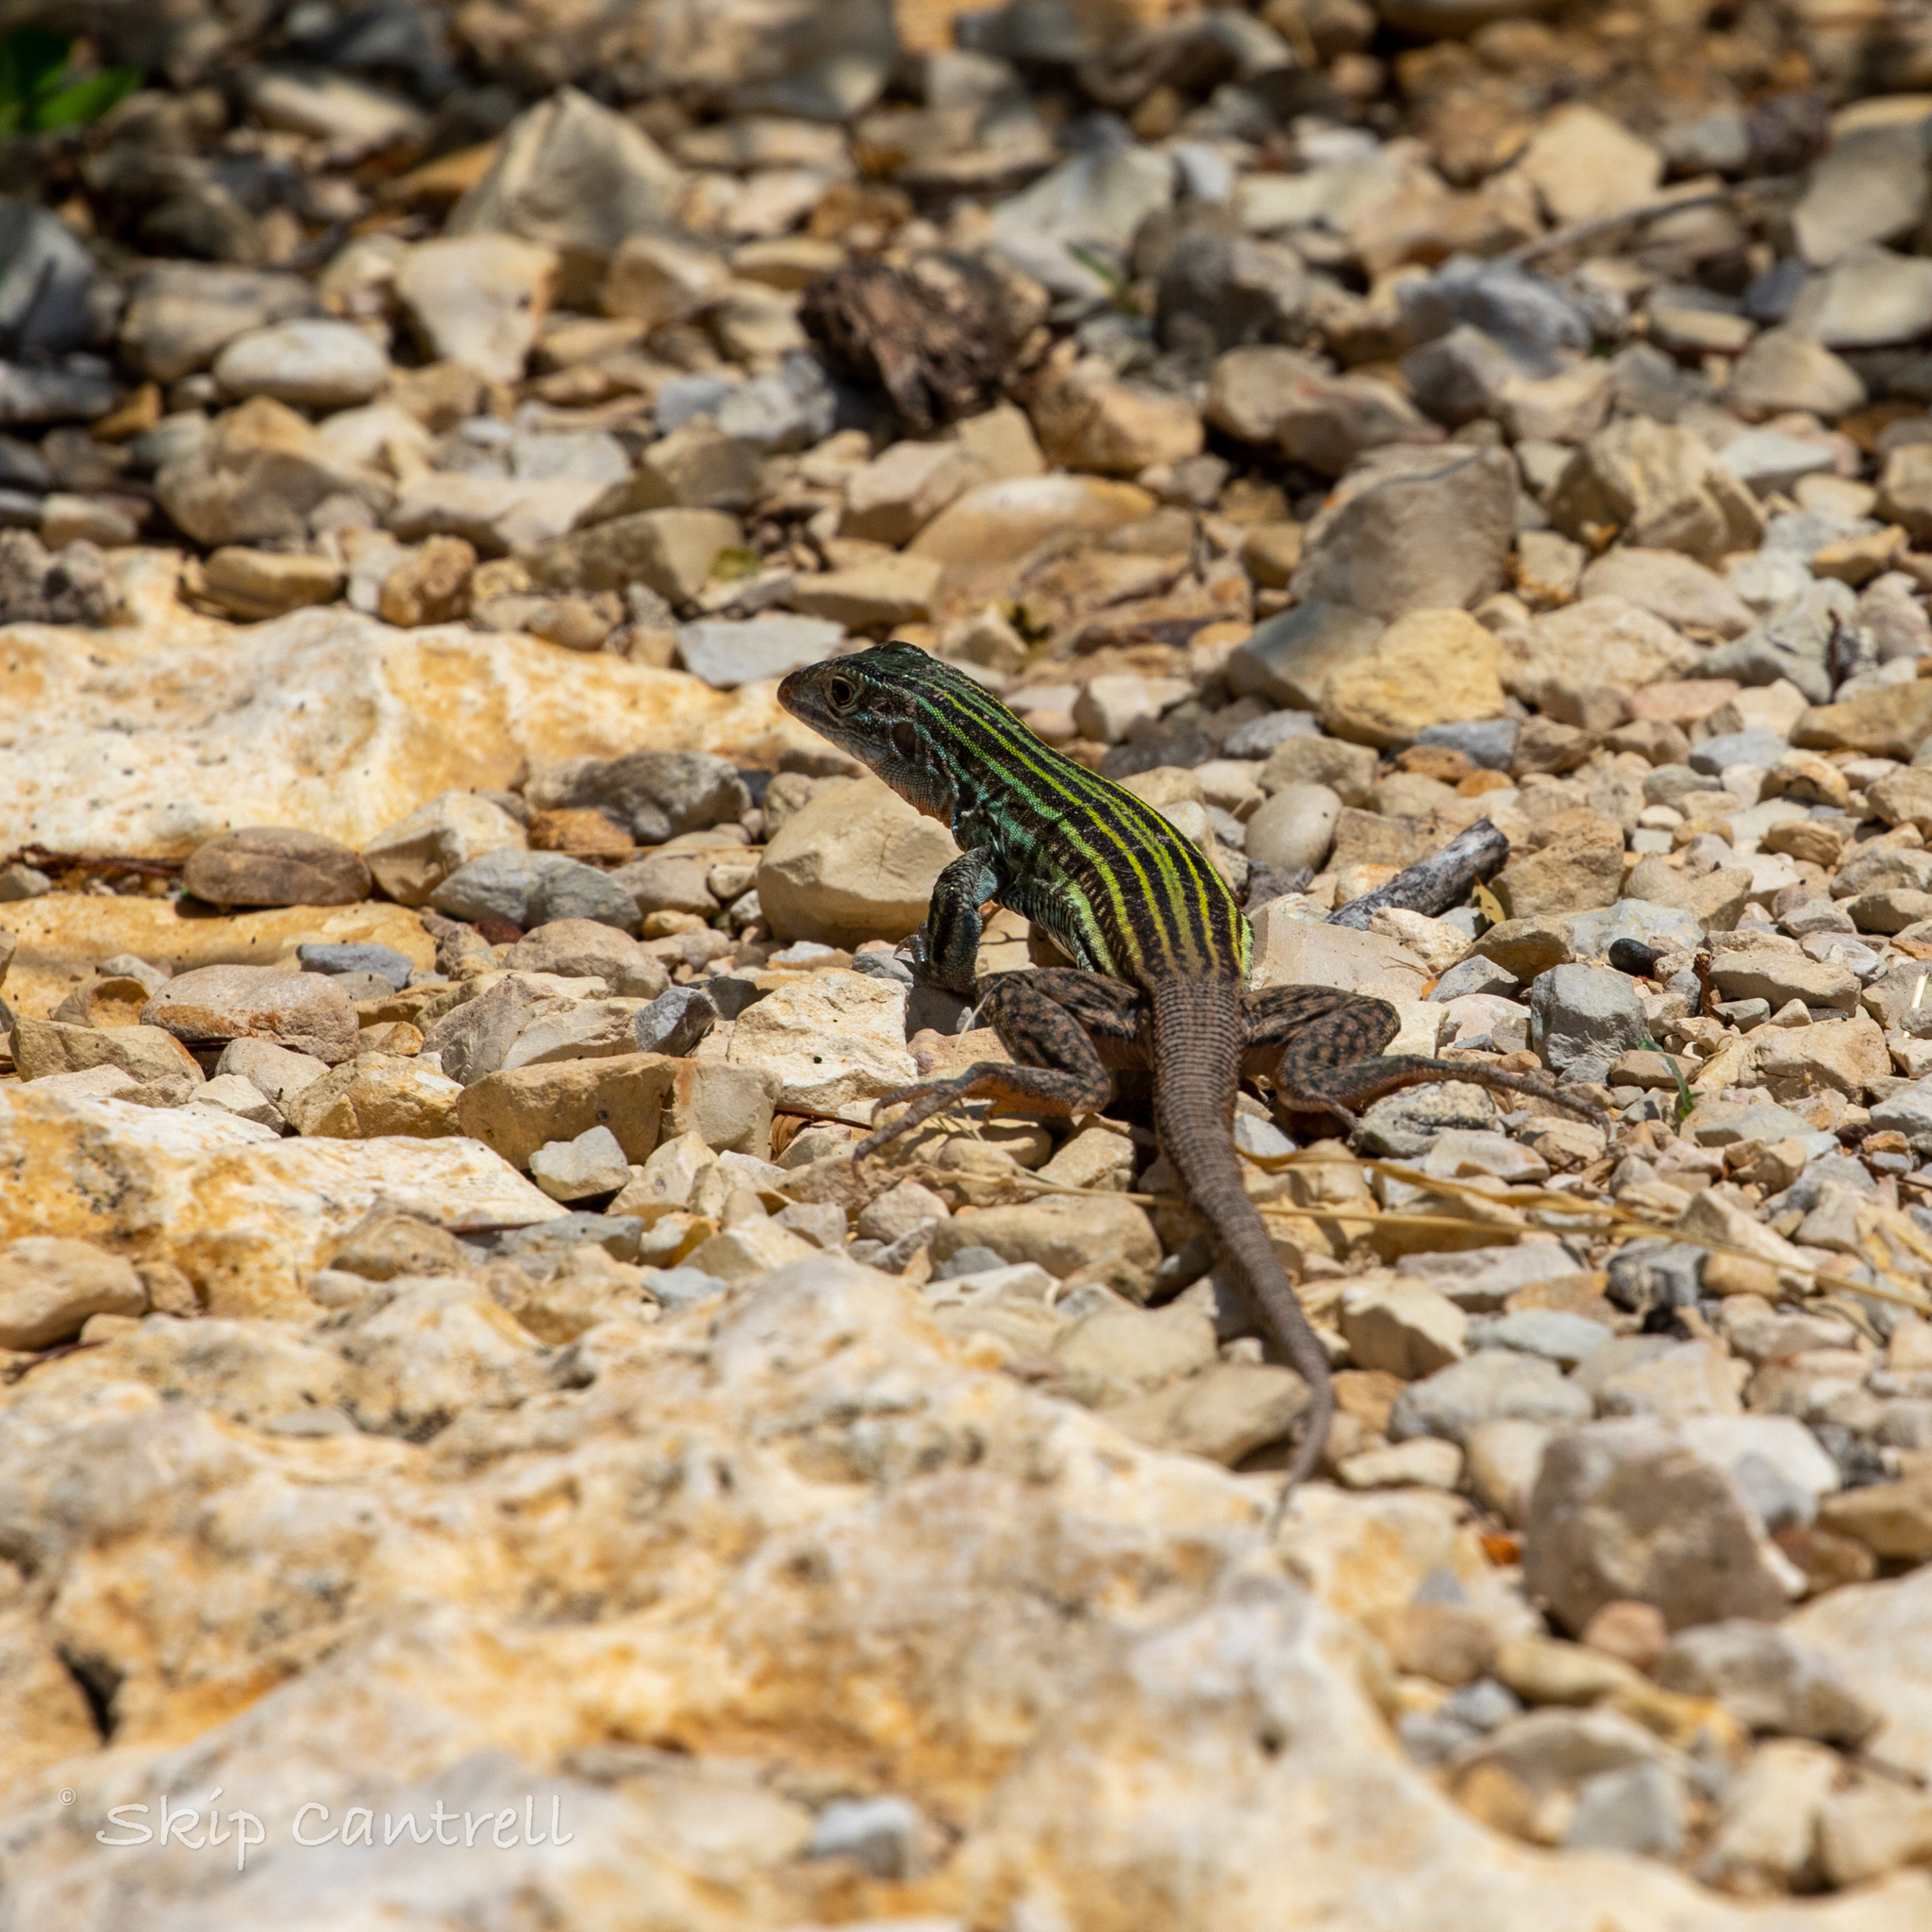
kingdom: Animalia
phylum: Chordata
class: Squamata
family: Teiidae
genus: Aspidoscelis
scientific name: Aspidoscelis gularis
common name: Eastern spotted whiptail
